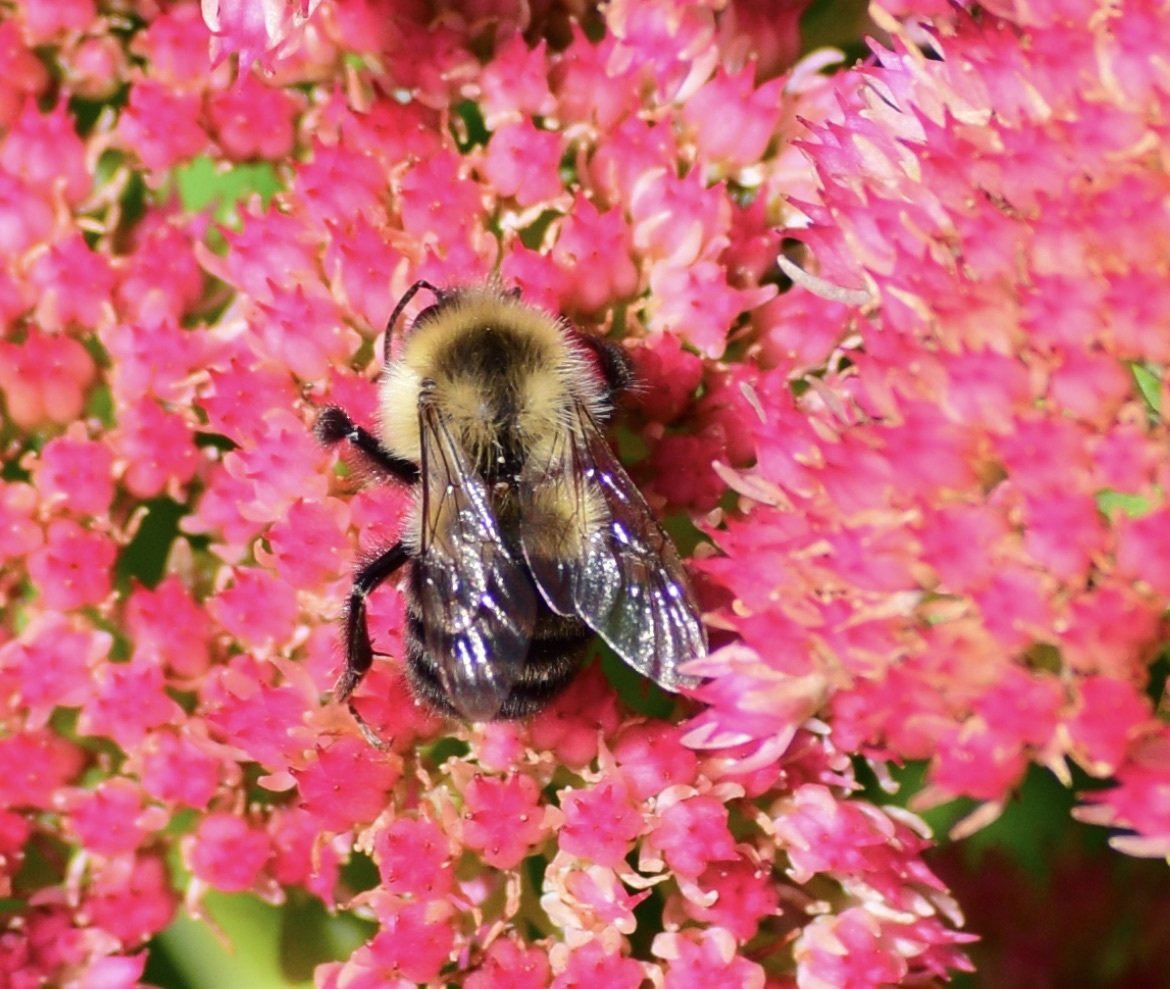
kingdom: Animalia
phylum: Arthropoda
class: Insecta
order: Hymenoptera
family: Apidae
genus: Bombus
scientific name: Bombus impatiens
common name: Common eastern bumble bee
